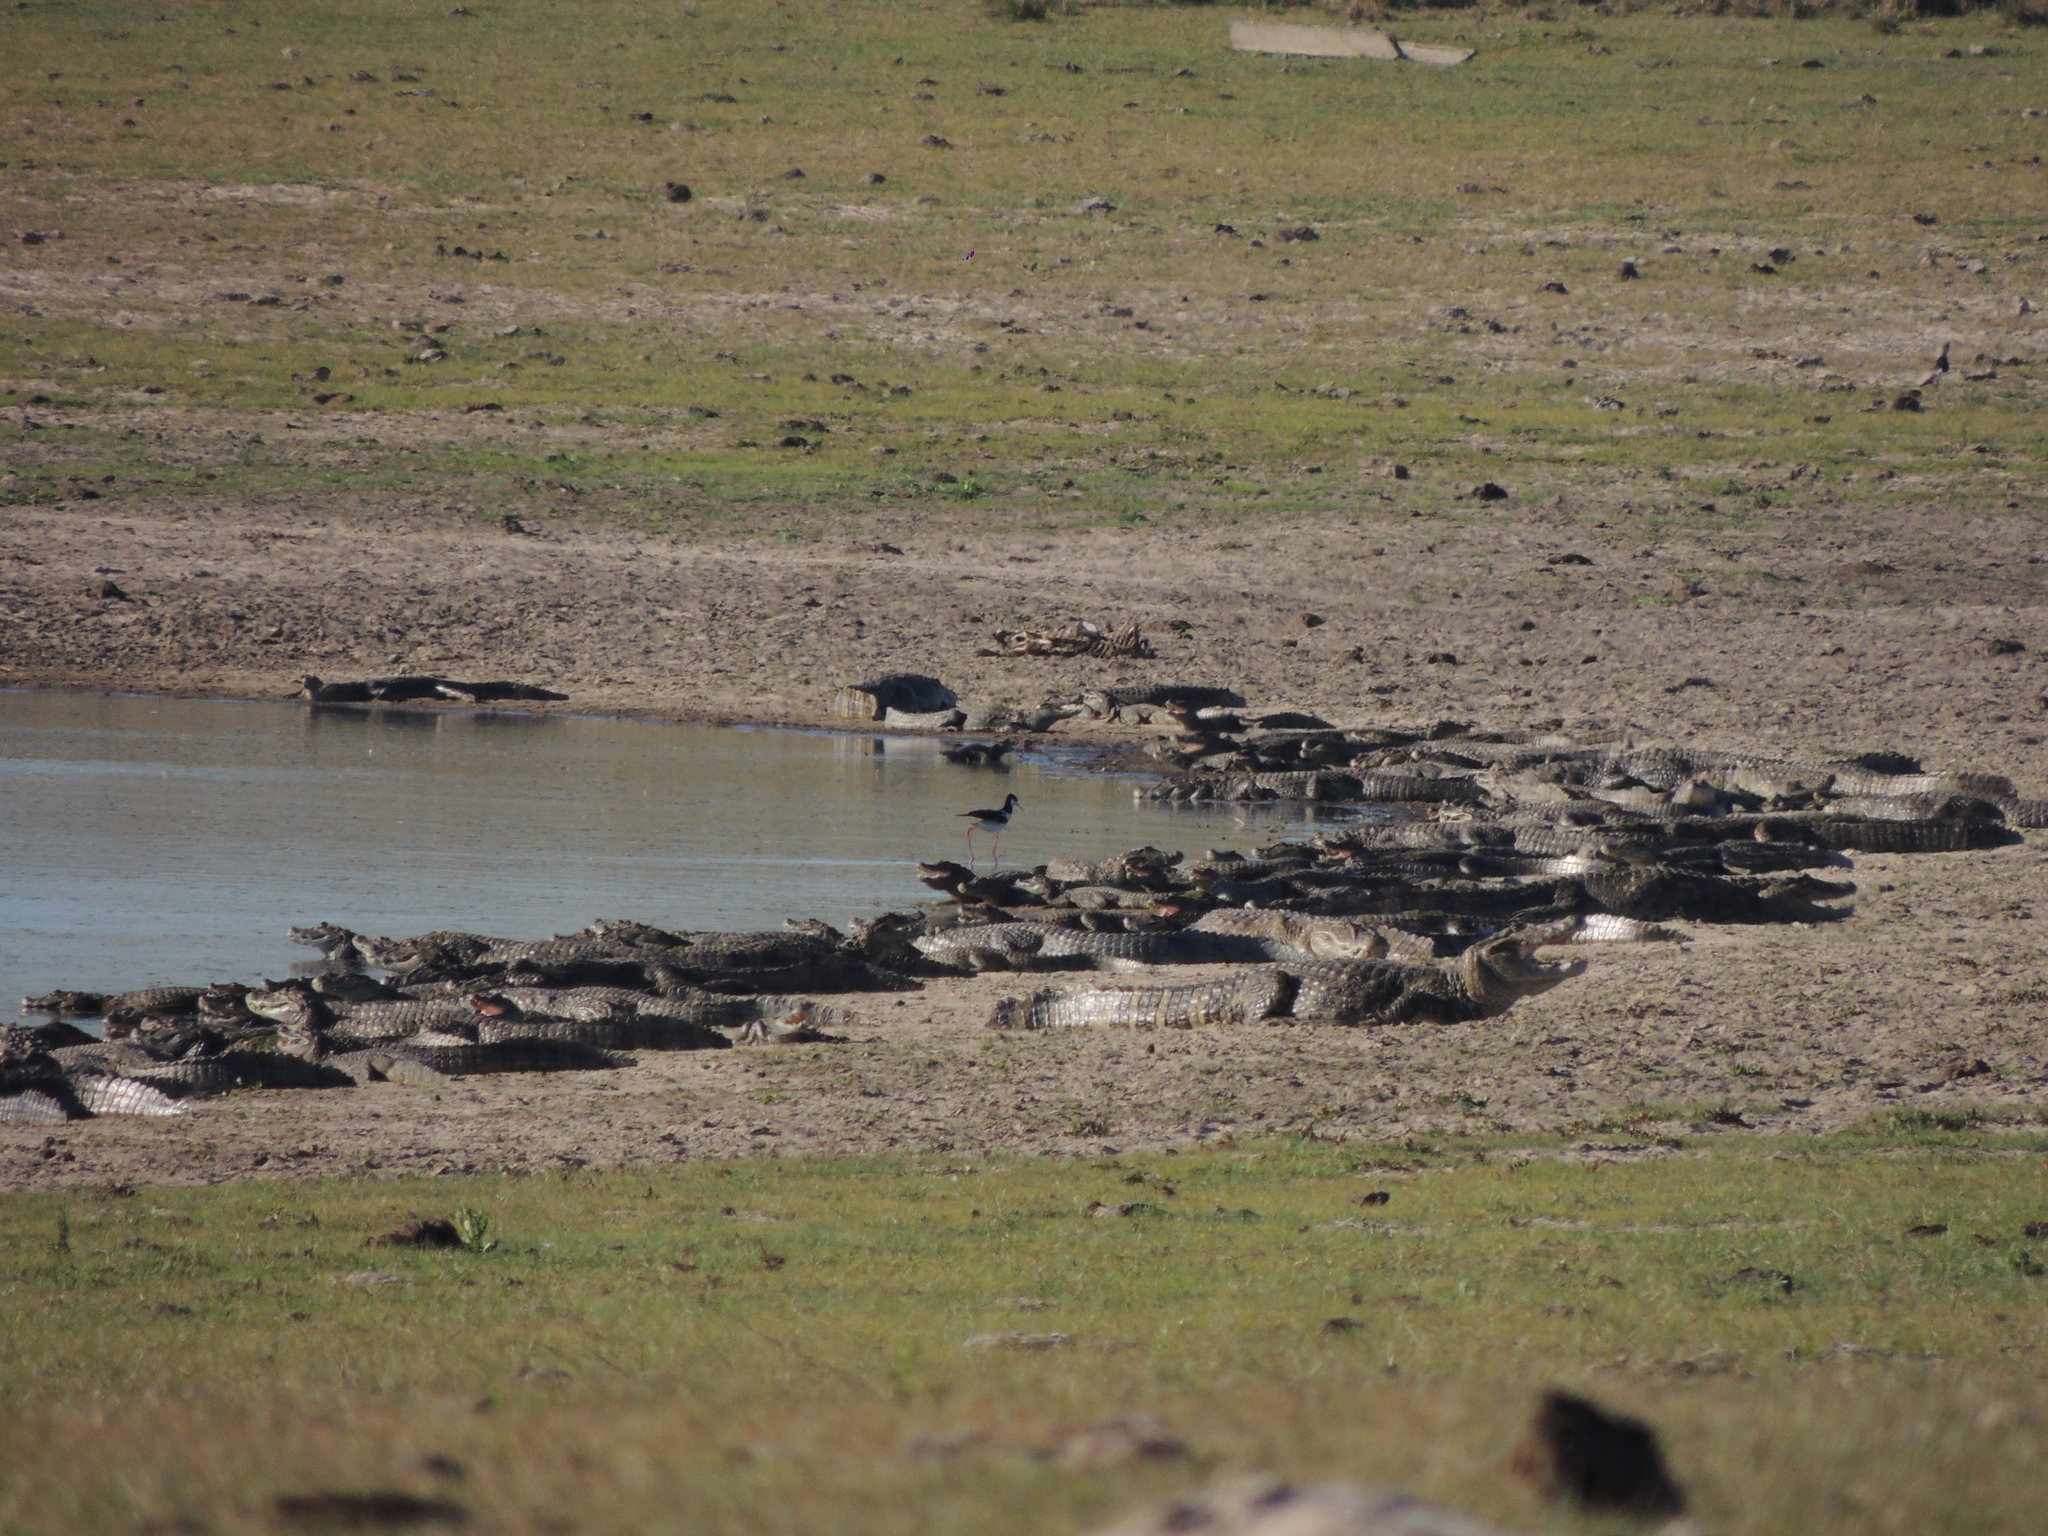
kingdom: Animalia
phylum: Chordata
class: Crocodylia
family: Alligatoridae
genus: Caiman
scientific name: Caiman latirostris
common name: Broad-snouted caiman
